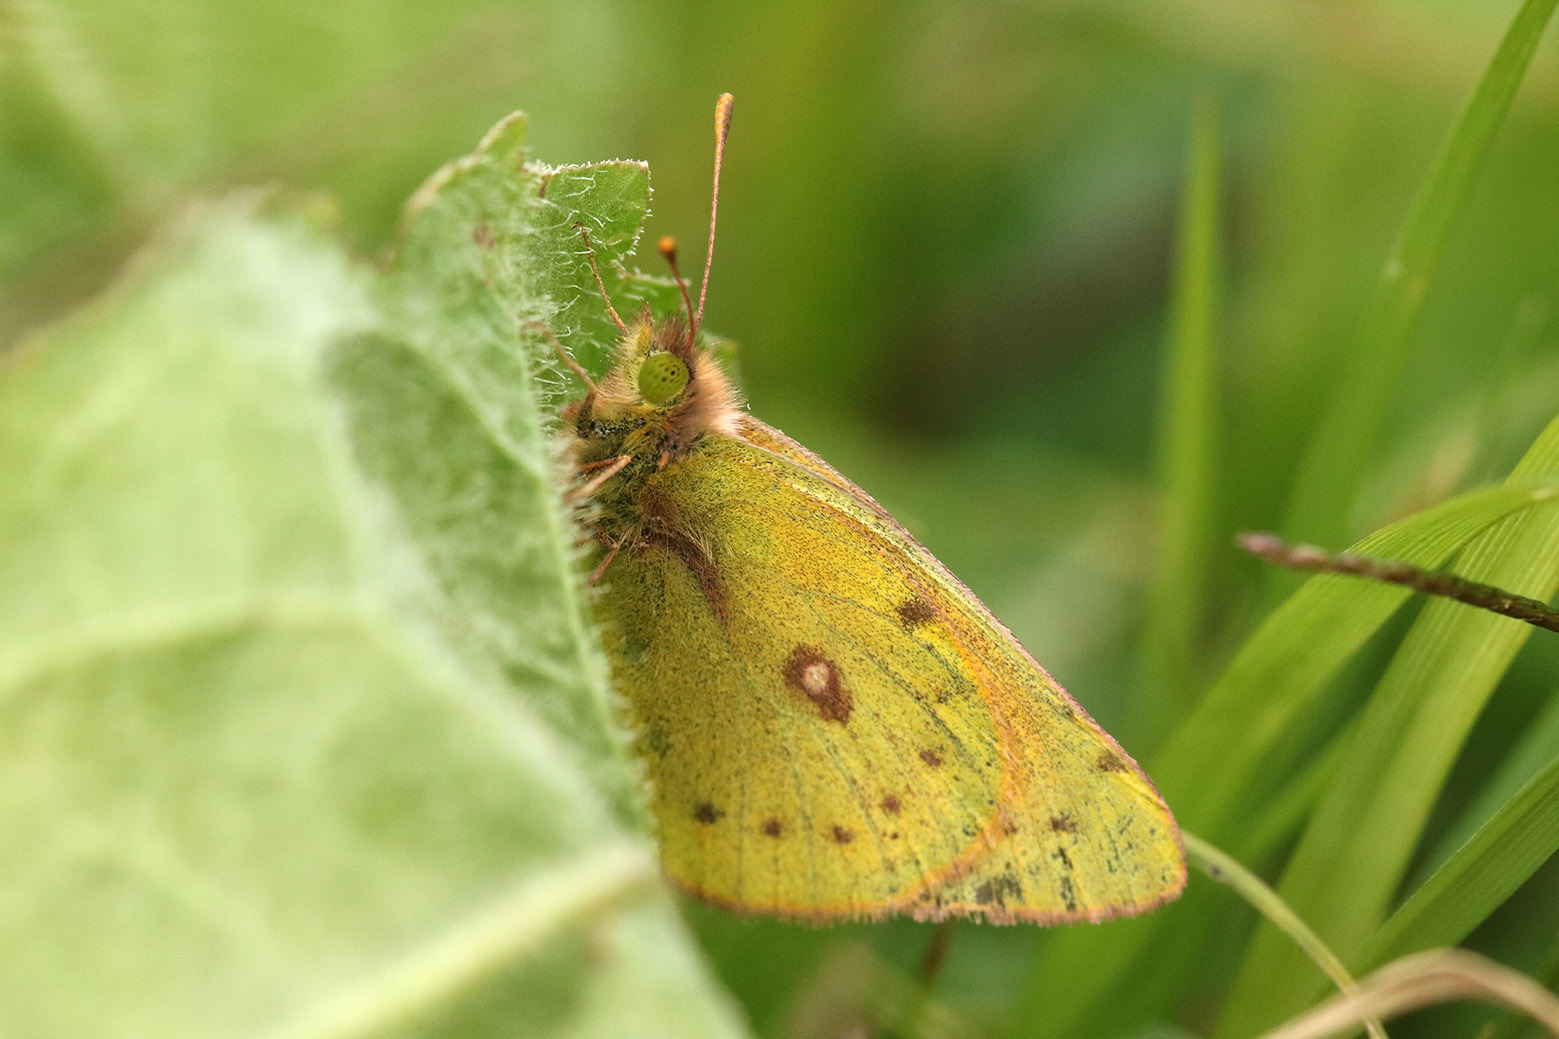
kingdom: Animalia
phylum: Arthropoda
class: Insecta
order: Lepidoptera
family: Pieridae
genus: Colias
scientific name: Colias lesbia
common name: Lesbia clouded yellow
